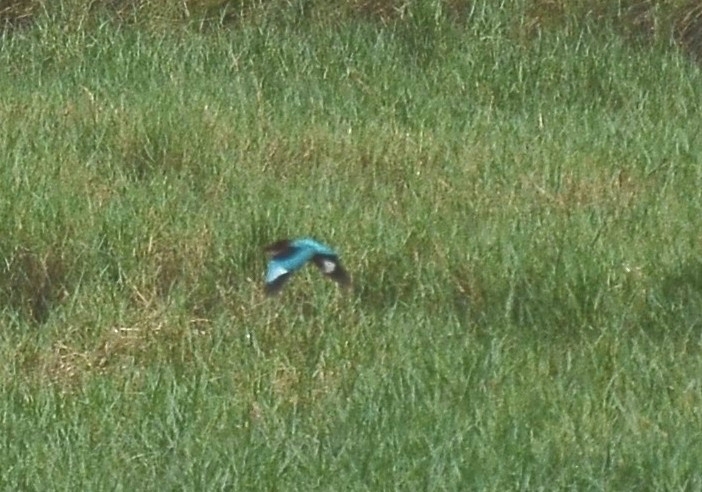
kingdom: Animalia
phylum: Chordata
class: Aves
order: Coraciiformes
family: Alcedinidae
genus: Halcyon
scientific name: Halcyon smyrnensis
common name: White-throated kingfisher
